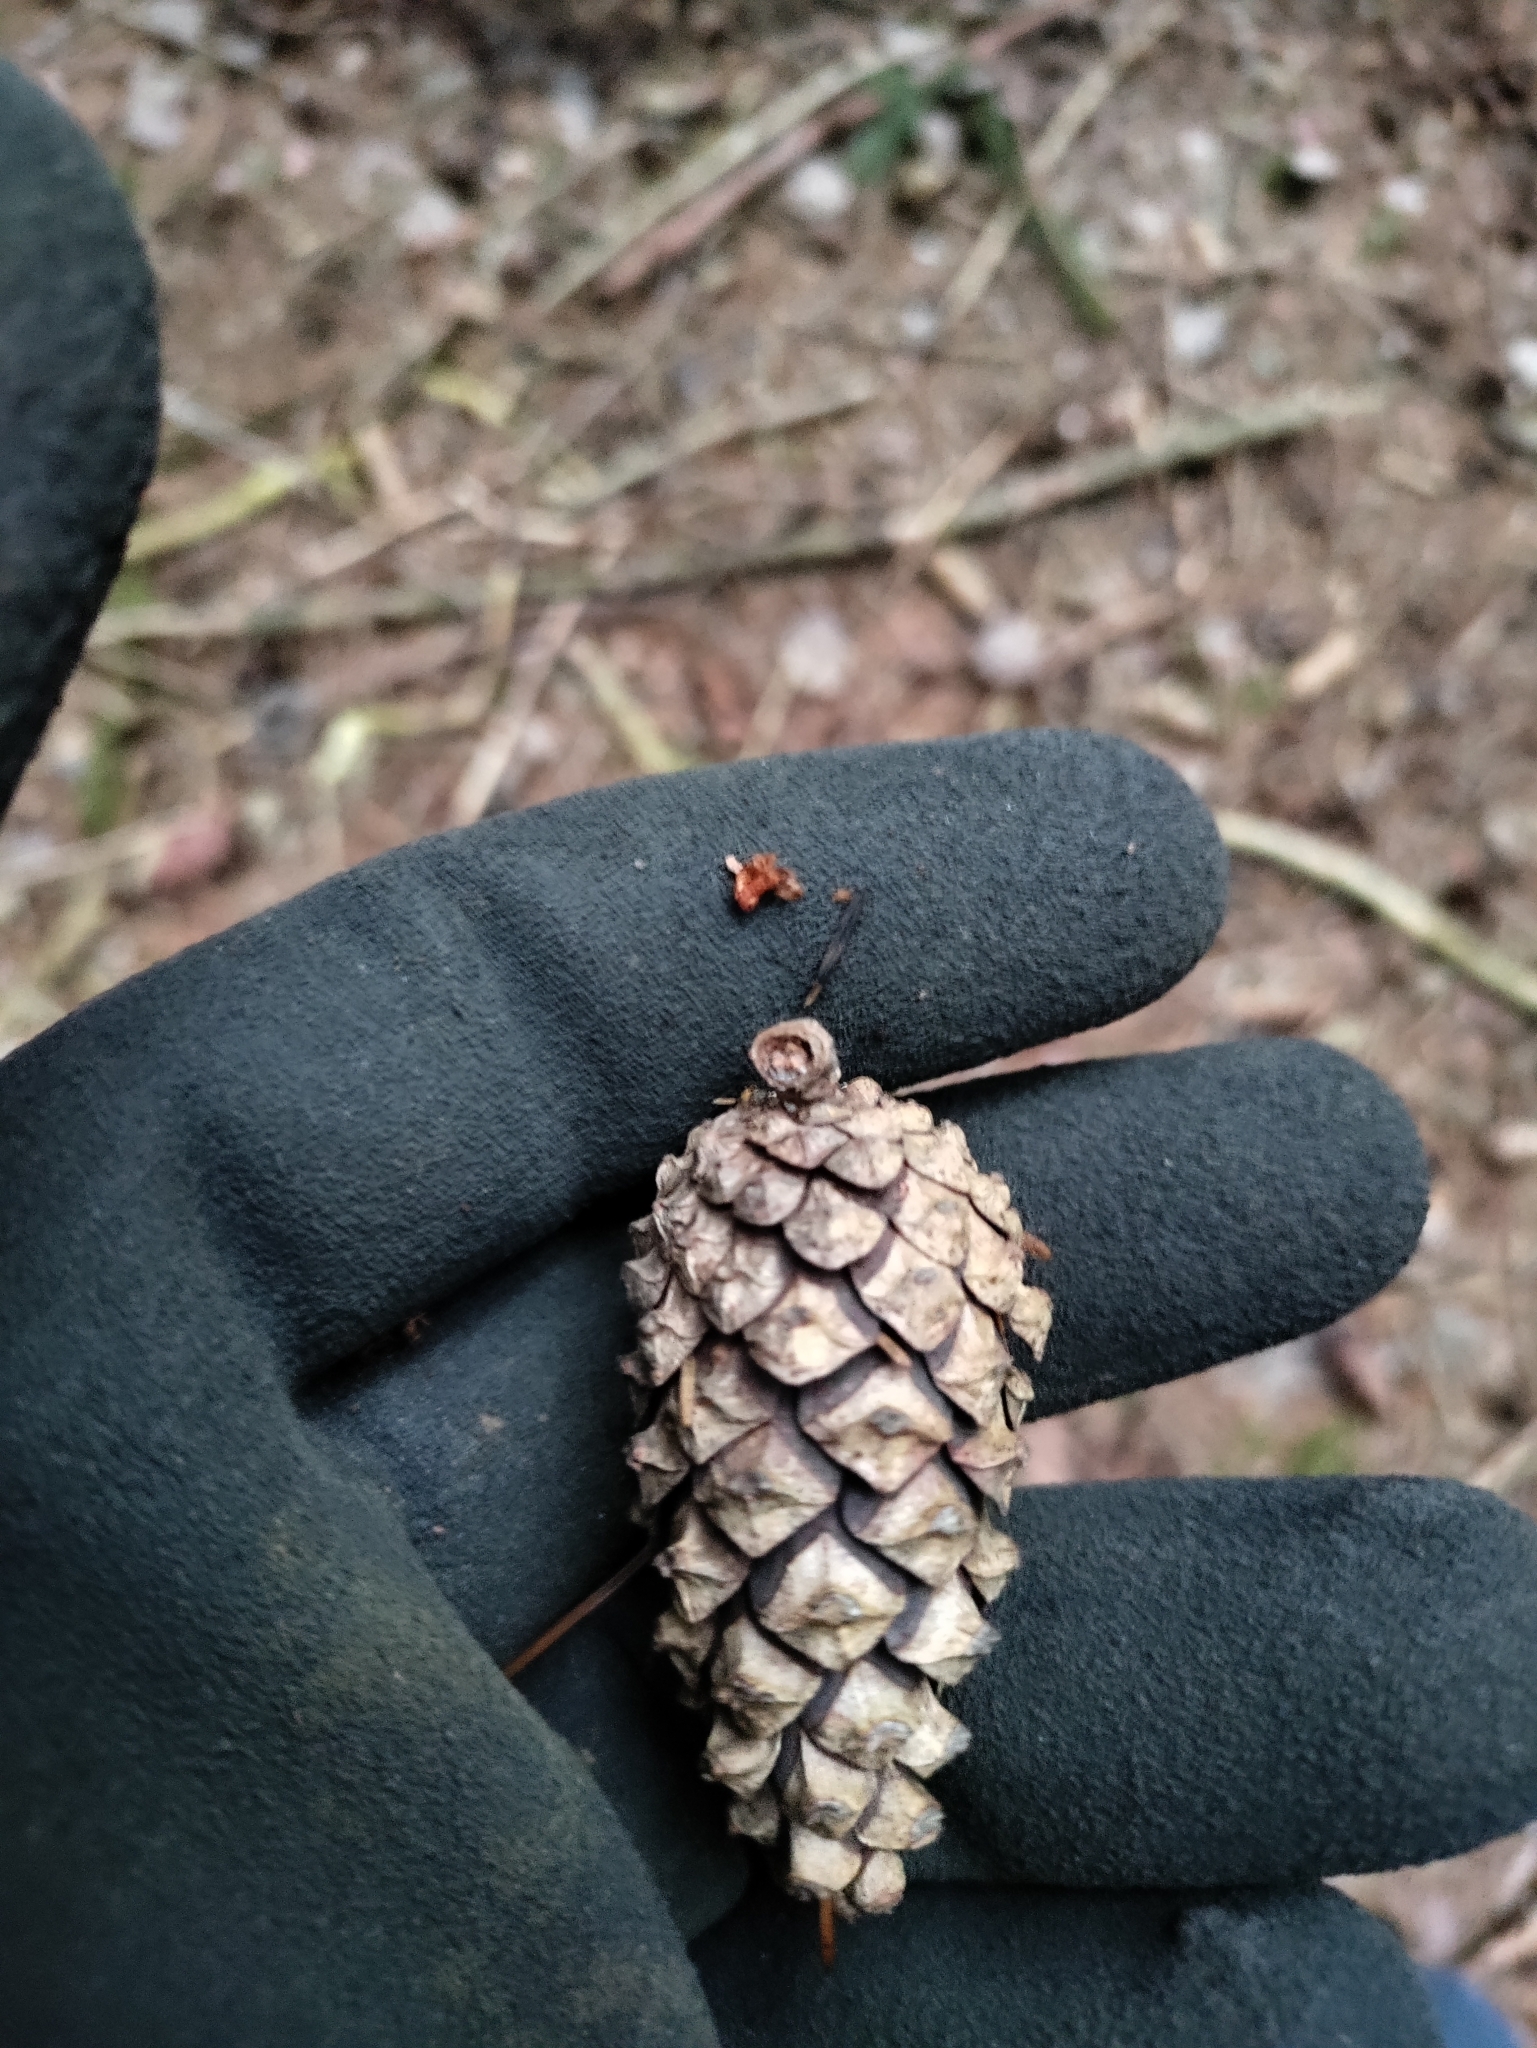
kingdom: Plantae
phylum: Tracheophyta
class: Pinopsida
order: Pinales
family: Pinaceae
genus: Pinus
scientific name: Pinus sylvestris
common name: Scots pine
